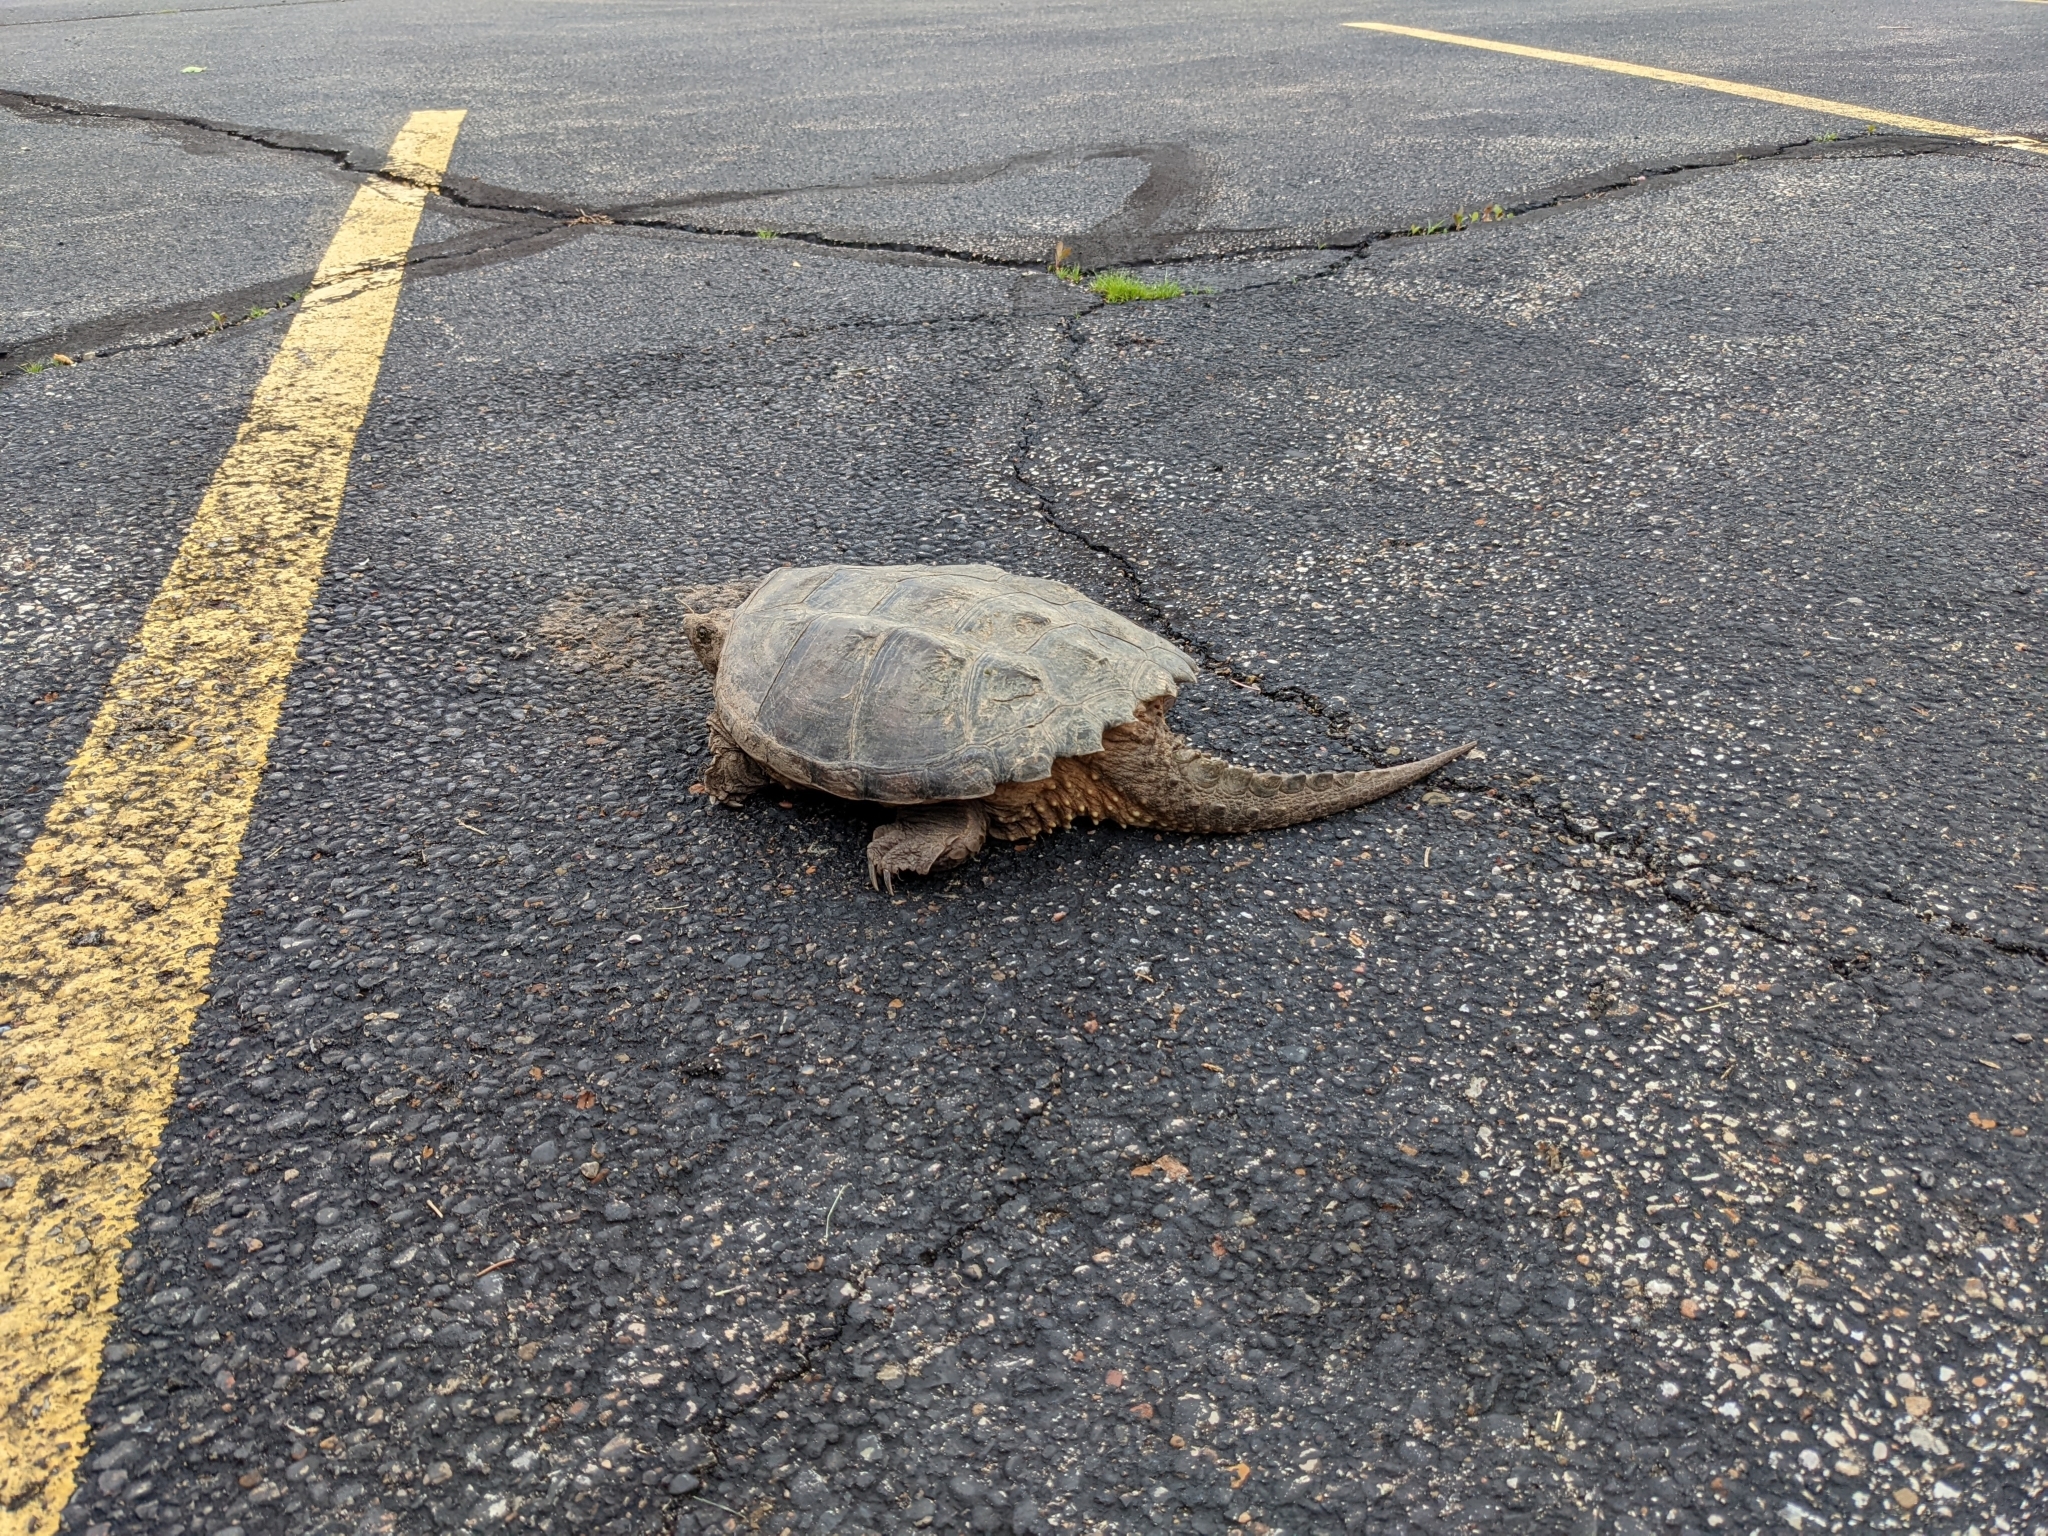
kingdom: Animalia
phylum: Chordata
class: Testudines
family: Chelydridae
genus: Chelydra
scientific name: Chelydra serpentina
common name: Common snapping turtle
